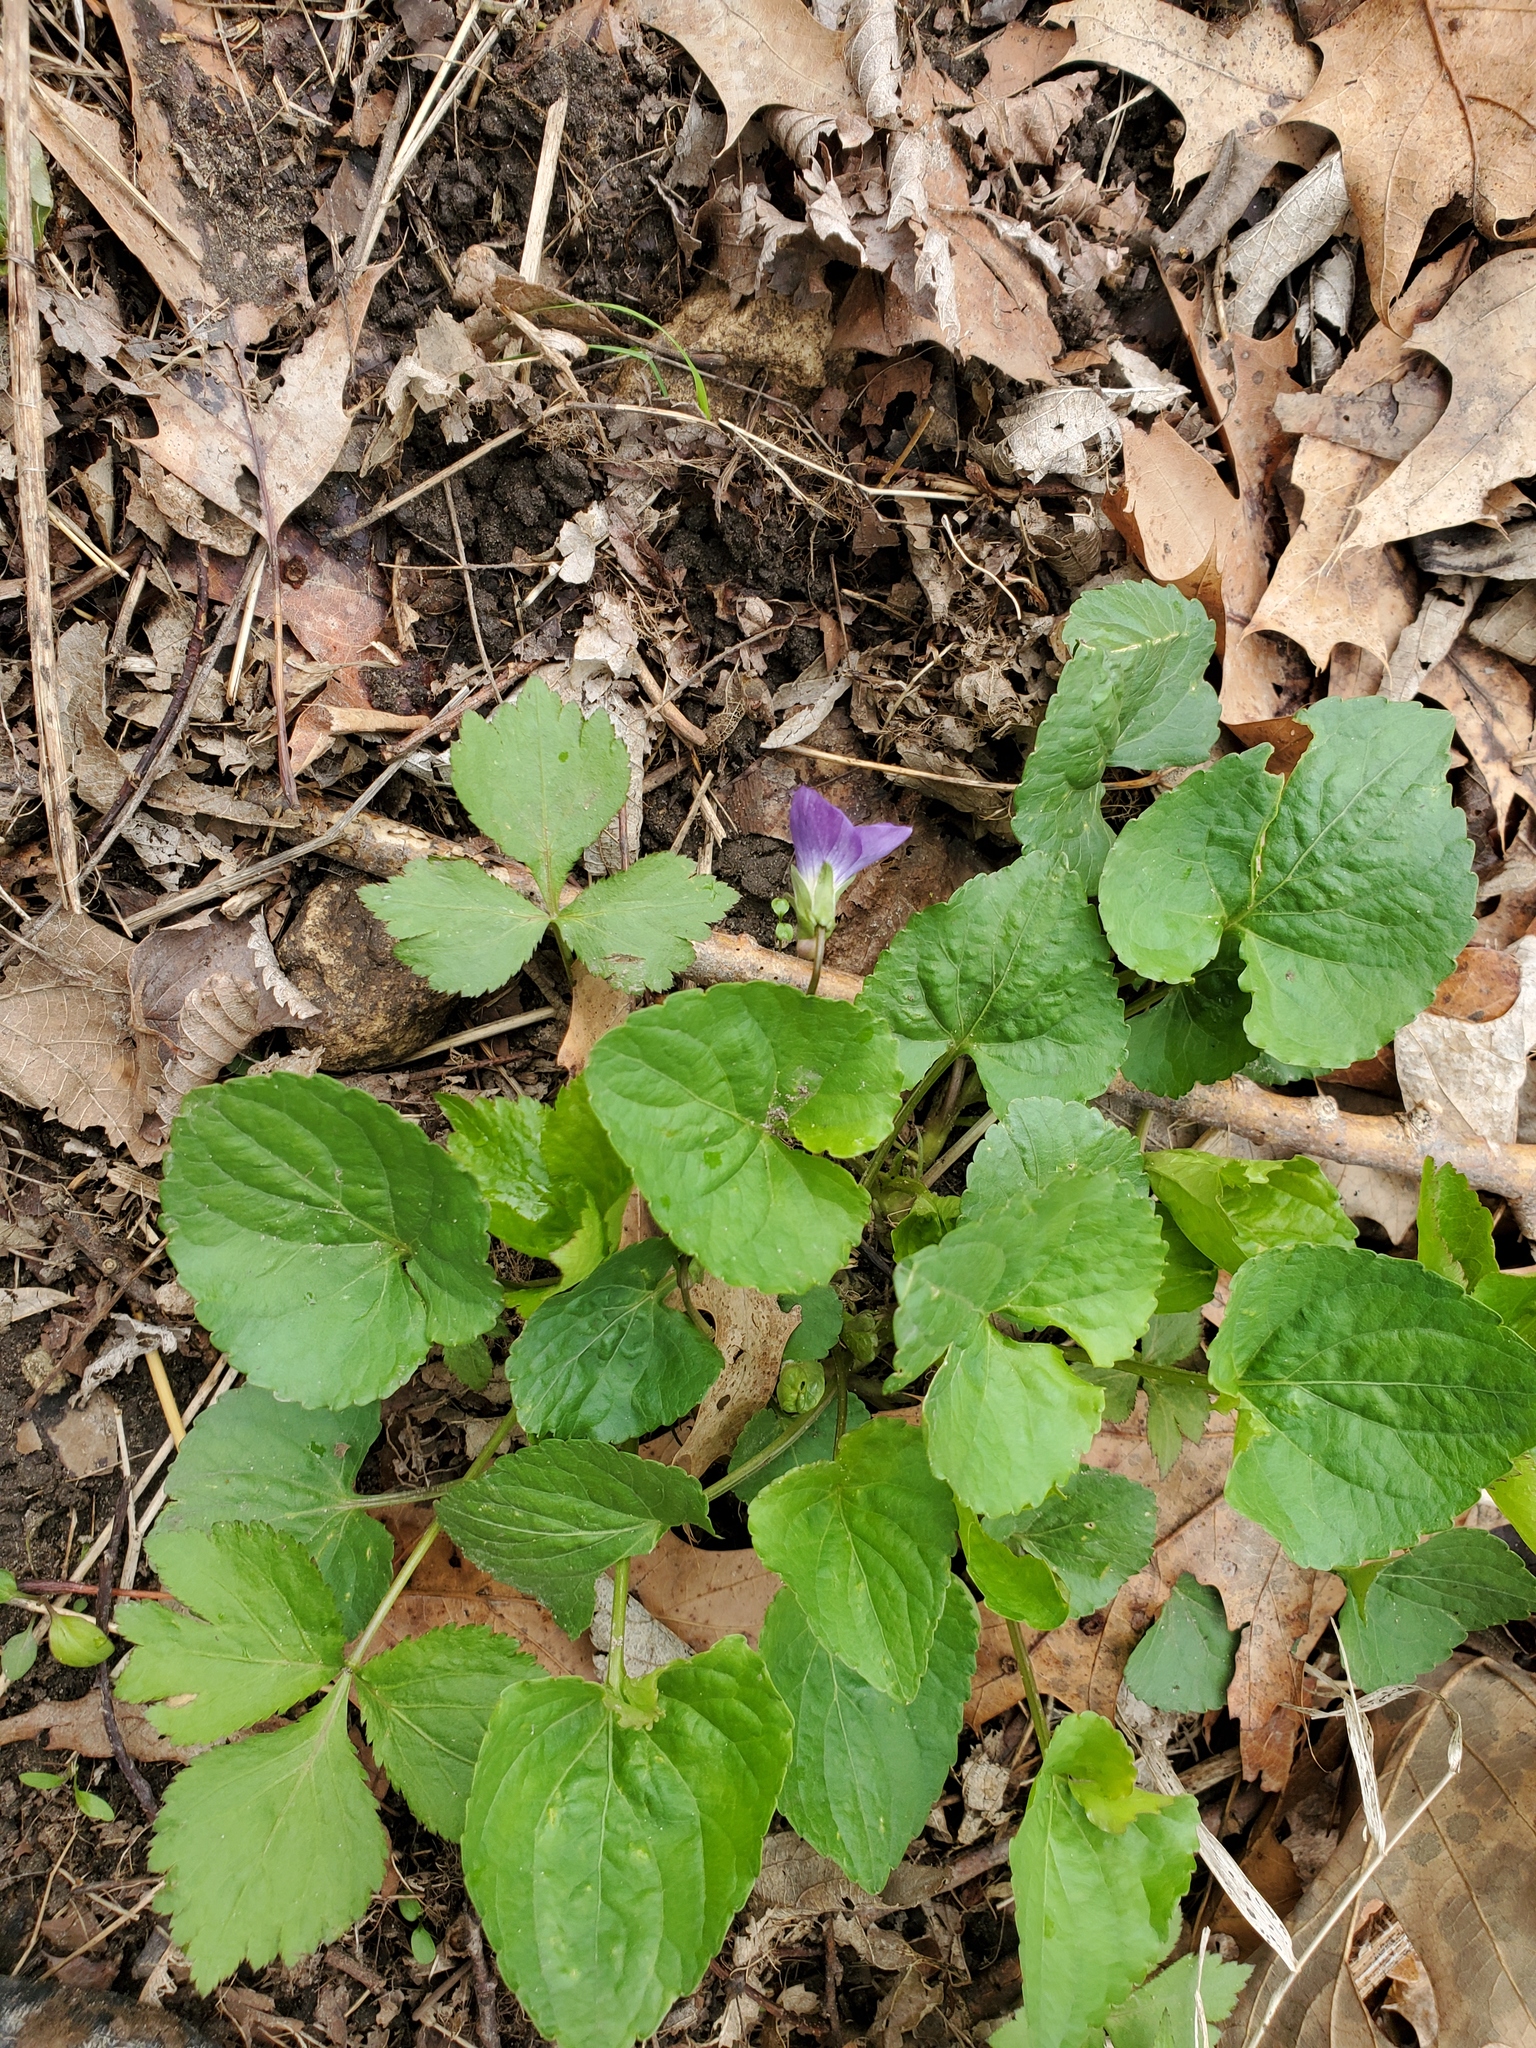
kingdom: Plantae
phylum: Tracheophyta
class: Magnoliopsida
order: Malpighiales
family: Violaceae
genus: Viola
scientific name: Viola sororia
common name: Dooryard violet
